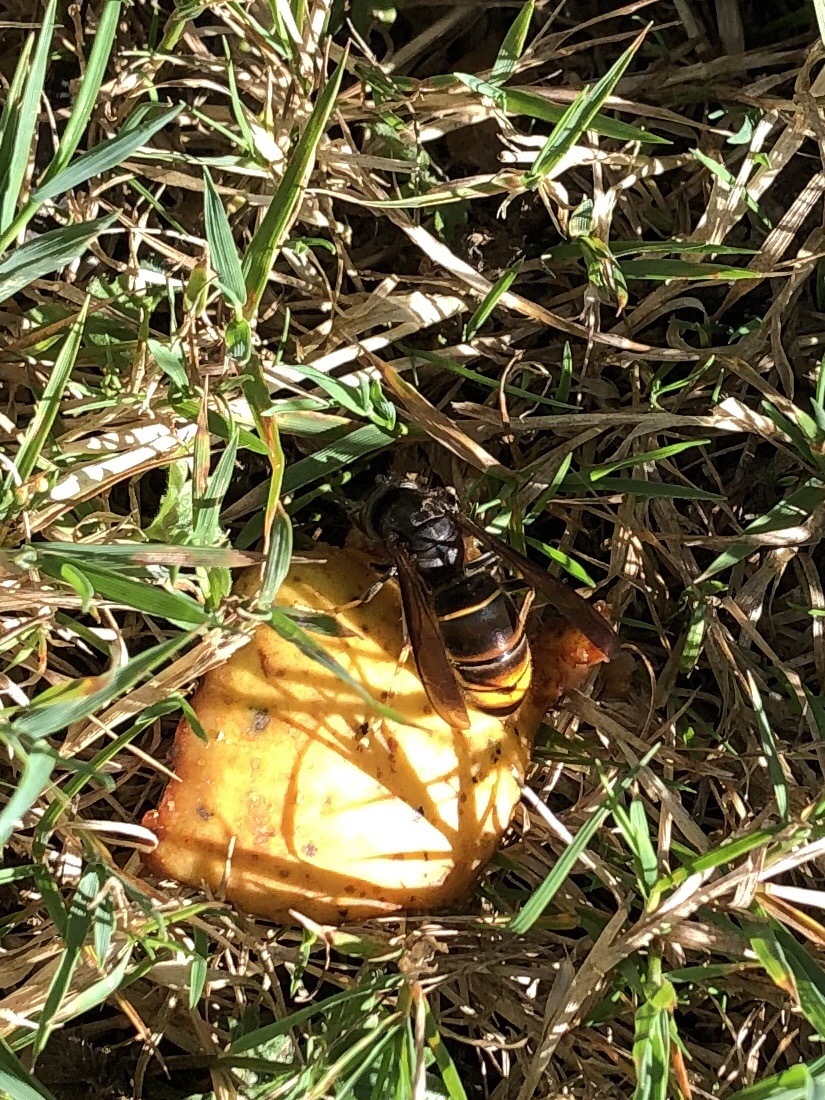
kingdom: Animalia
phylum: Arthropoda
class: Insecta
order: Hymenoptera
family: Vespidae
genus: Vespa
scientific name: Vespa velutina
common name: Asian hornet
